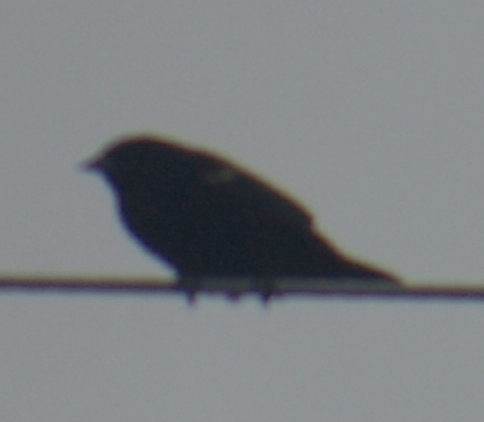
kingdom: Animalia
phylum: Chordata
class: Aves
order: Passeriformes
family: Icteridae
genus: Agelaius
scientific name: Agelaius phoeniceus
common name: Red-winged blackbird
